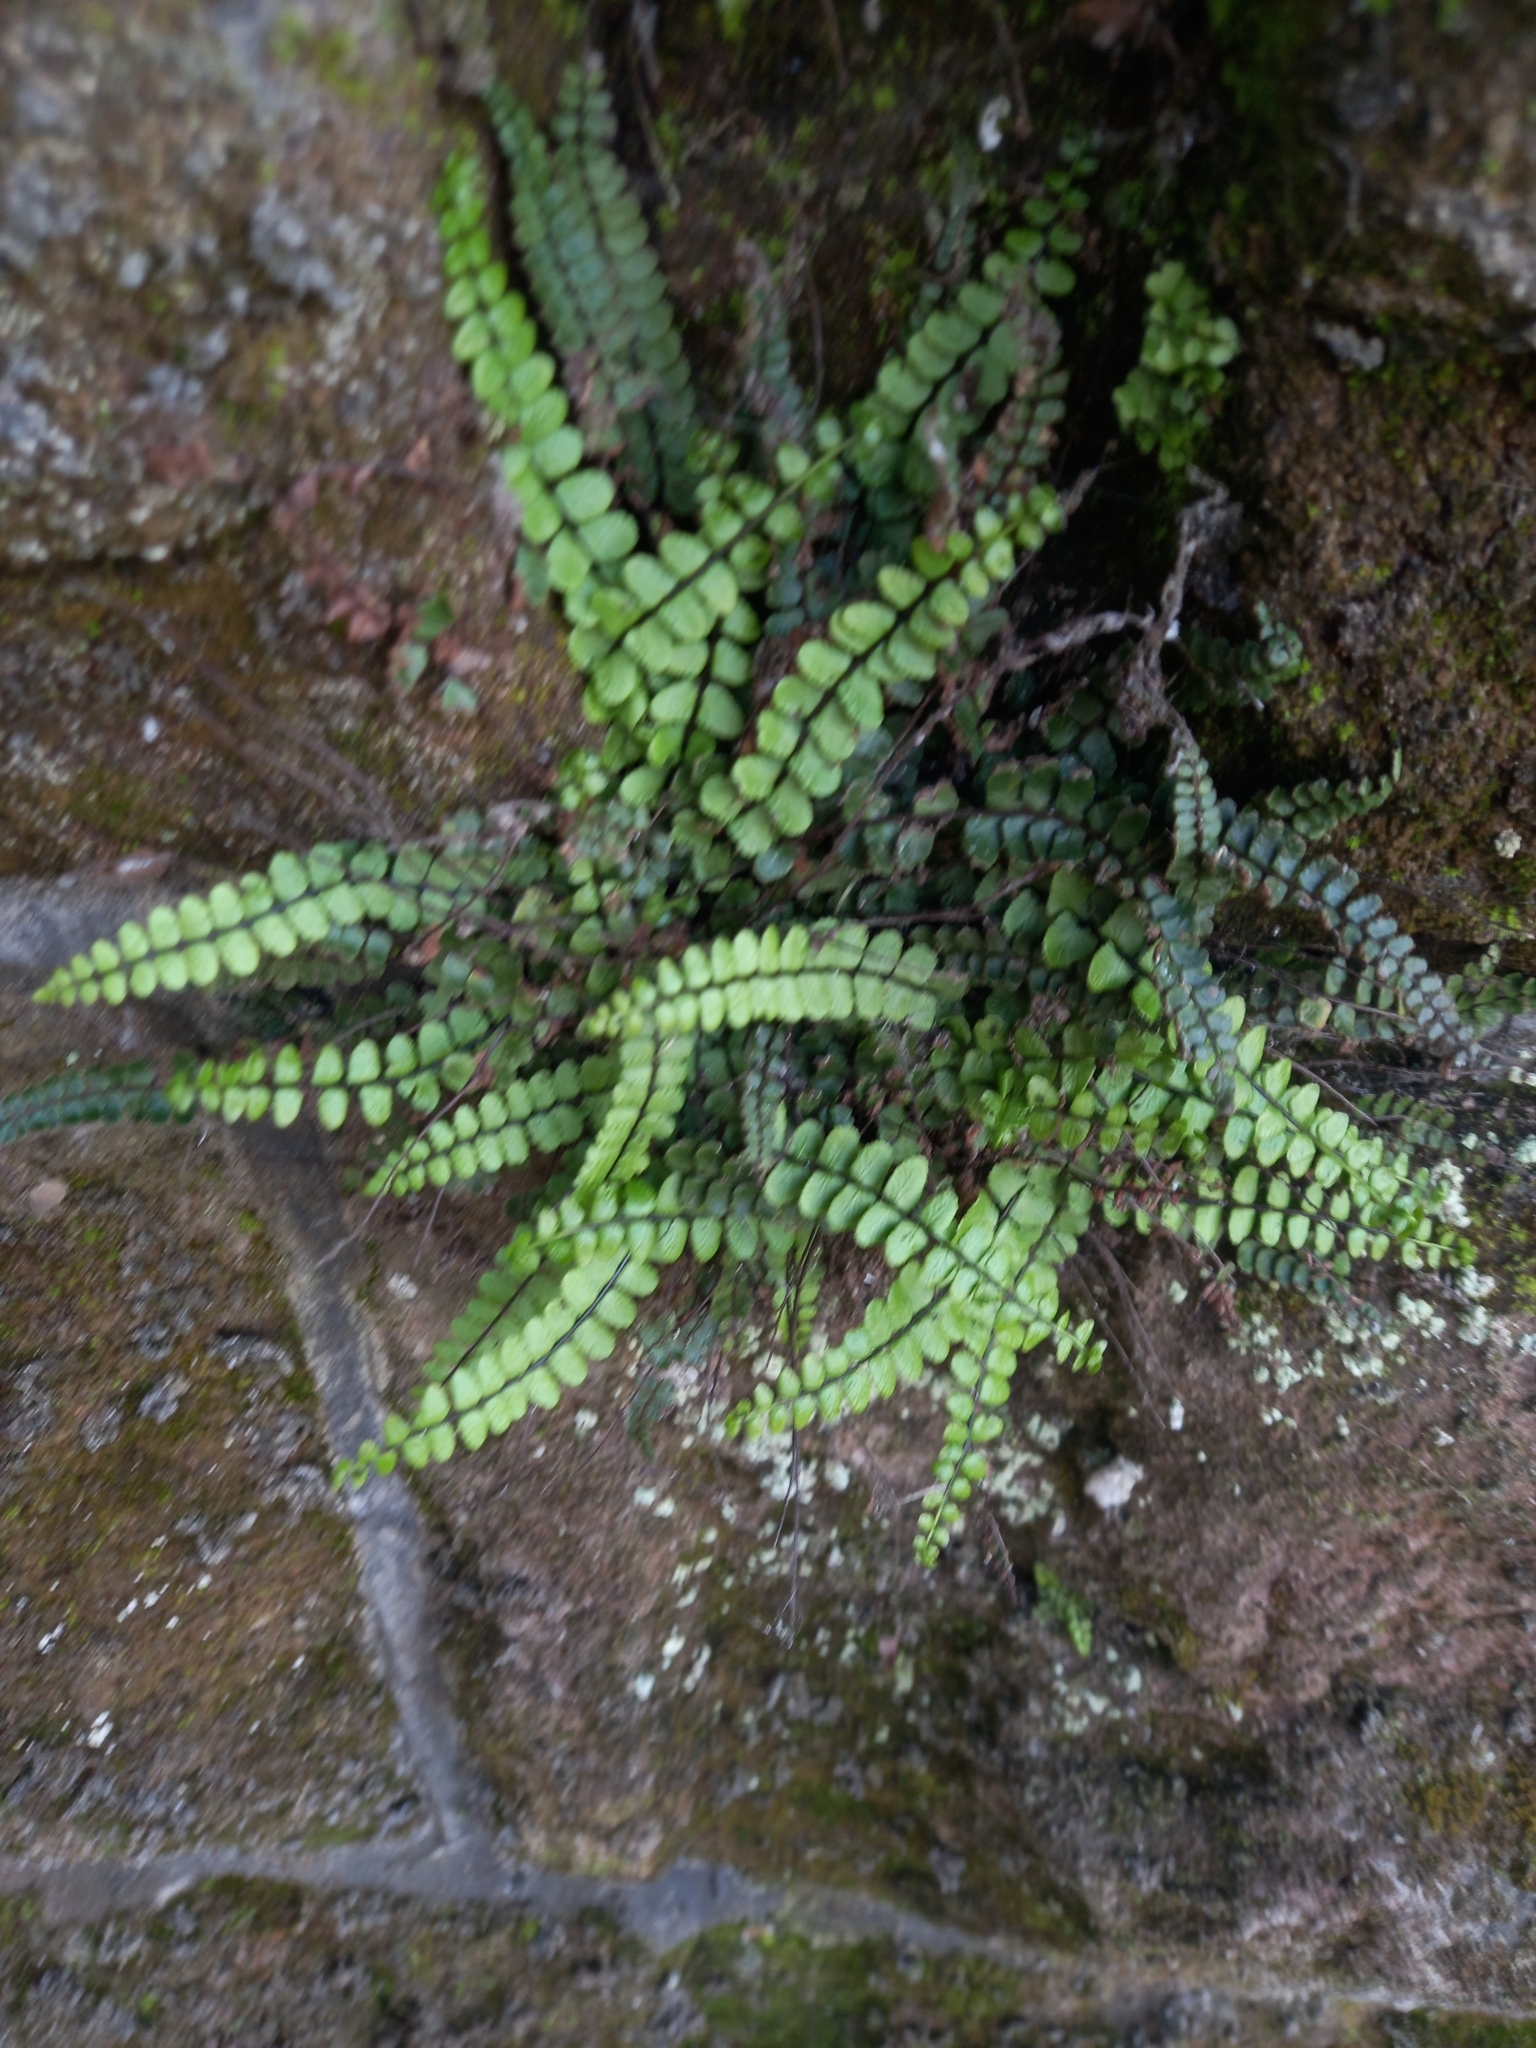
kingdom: Plantae
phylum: Tracheophyta
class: Polypodiopsida
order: Polypodiales
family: Aspleniaceae
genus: Asplenium
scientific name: Asplenium trichomanes
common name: Maidenhair spleenwort
